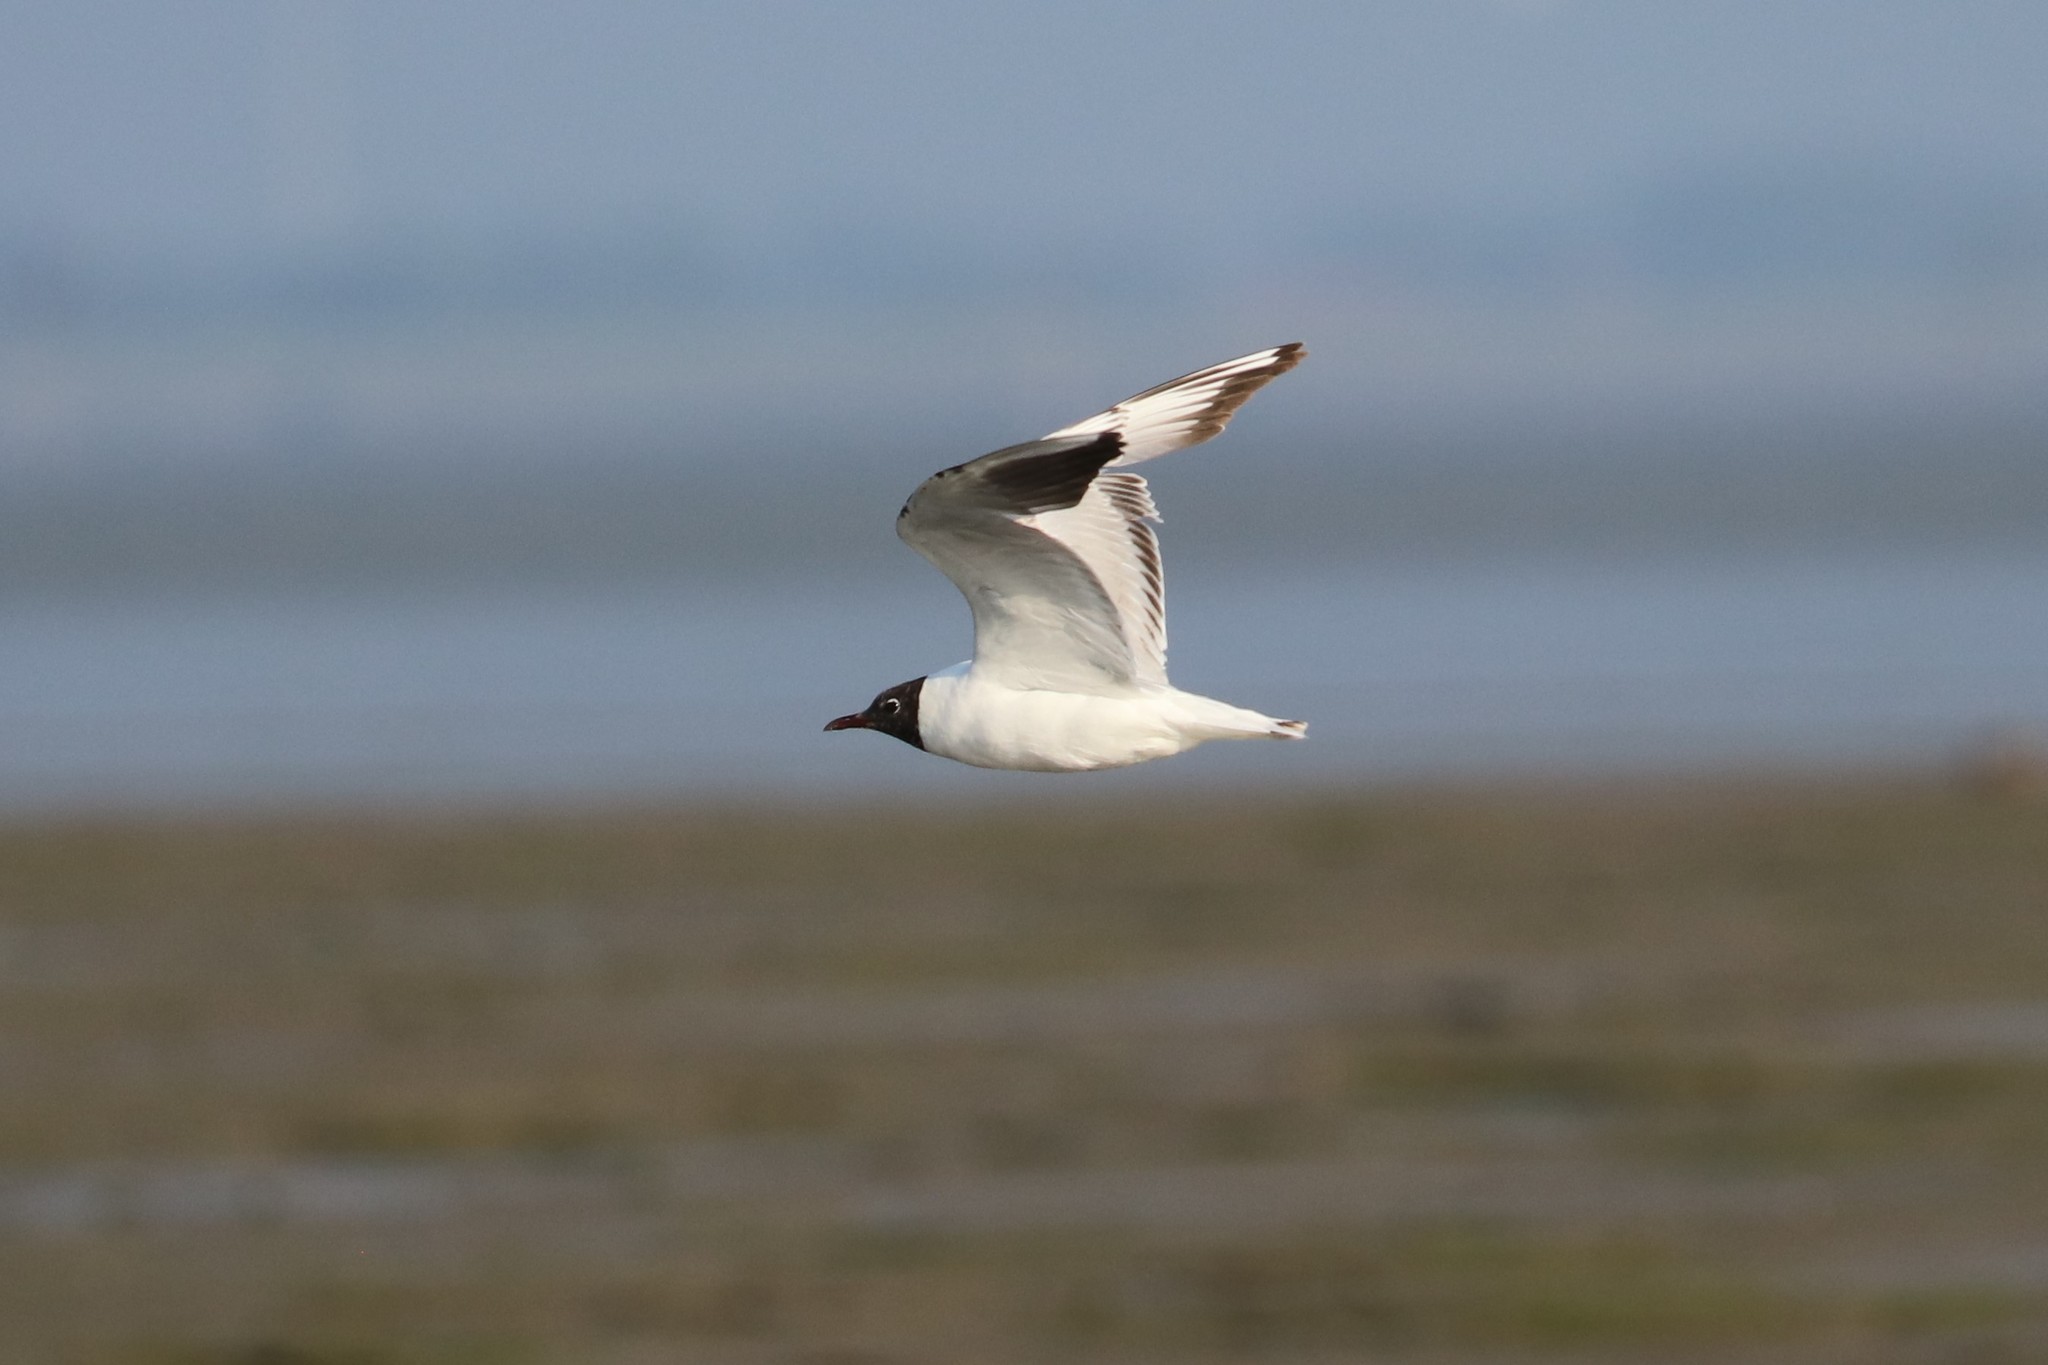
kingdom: Animalia
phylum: Chordata
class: Aves
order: Charadriiformes
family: Laridae
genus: Chroicocephalus
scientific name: Chroicocephalus ridibundus
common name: Black-headed gull
